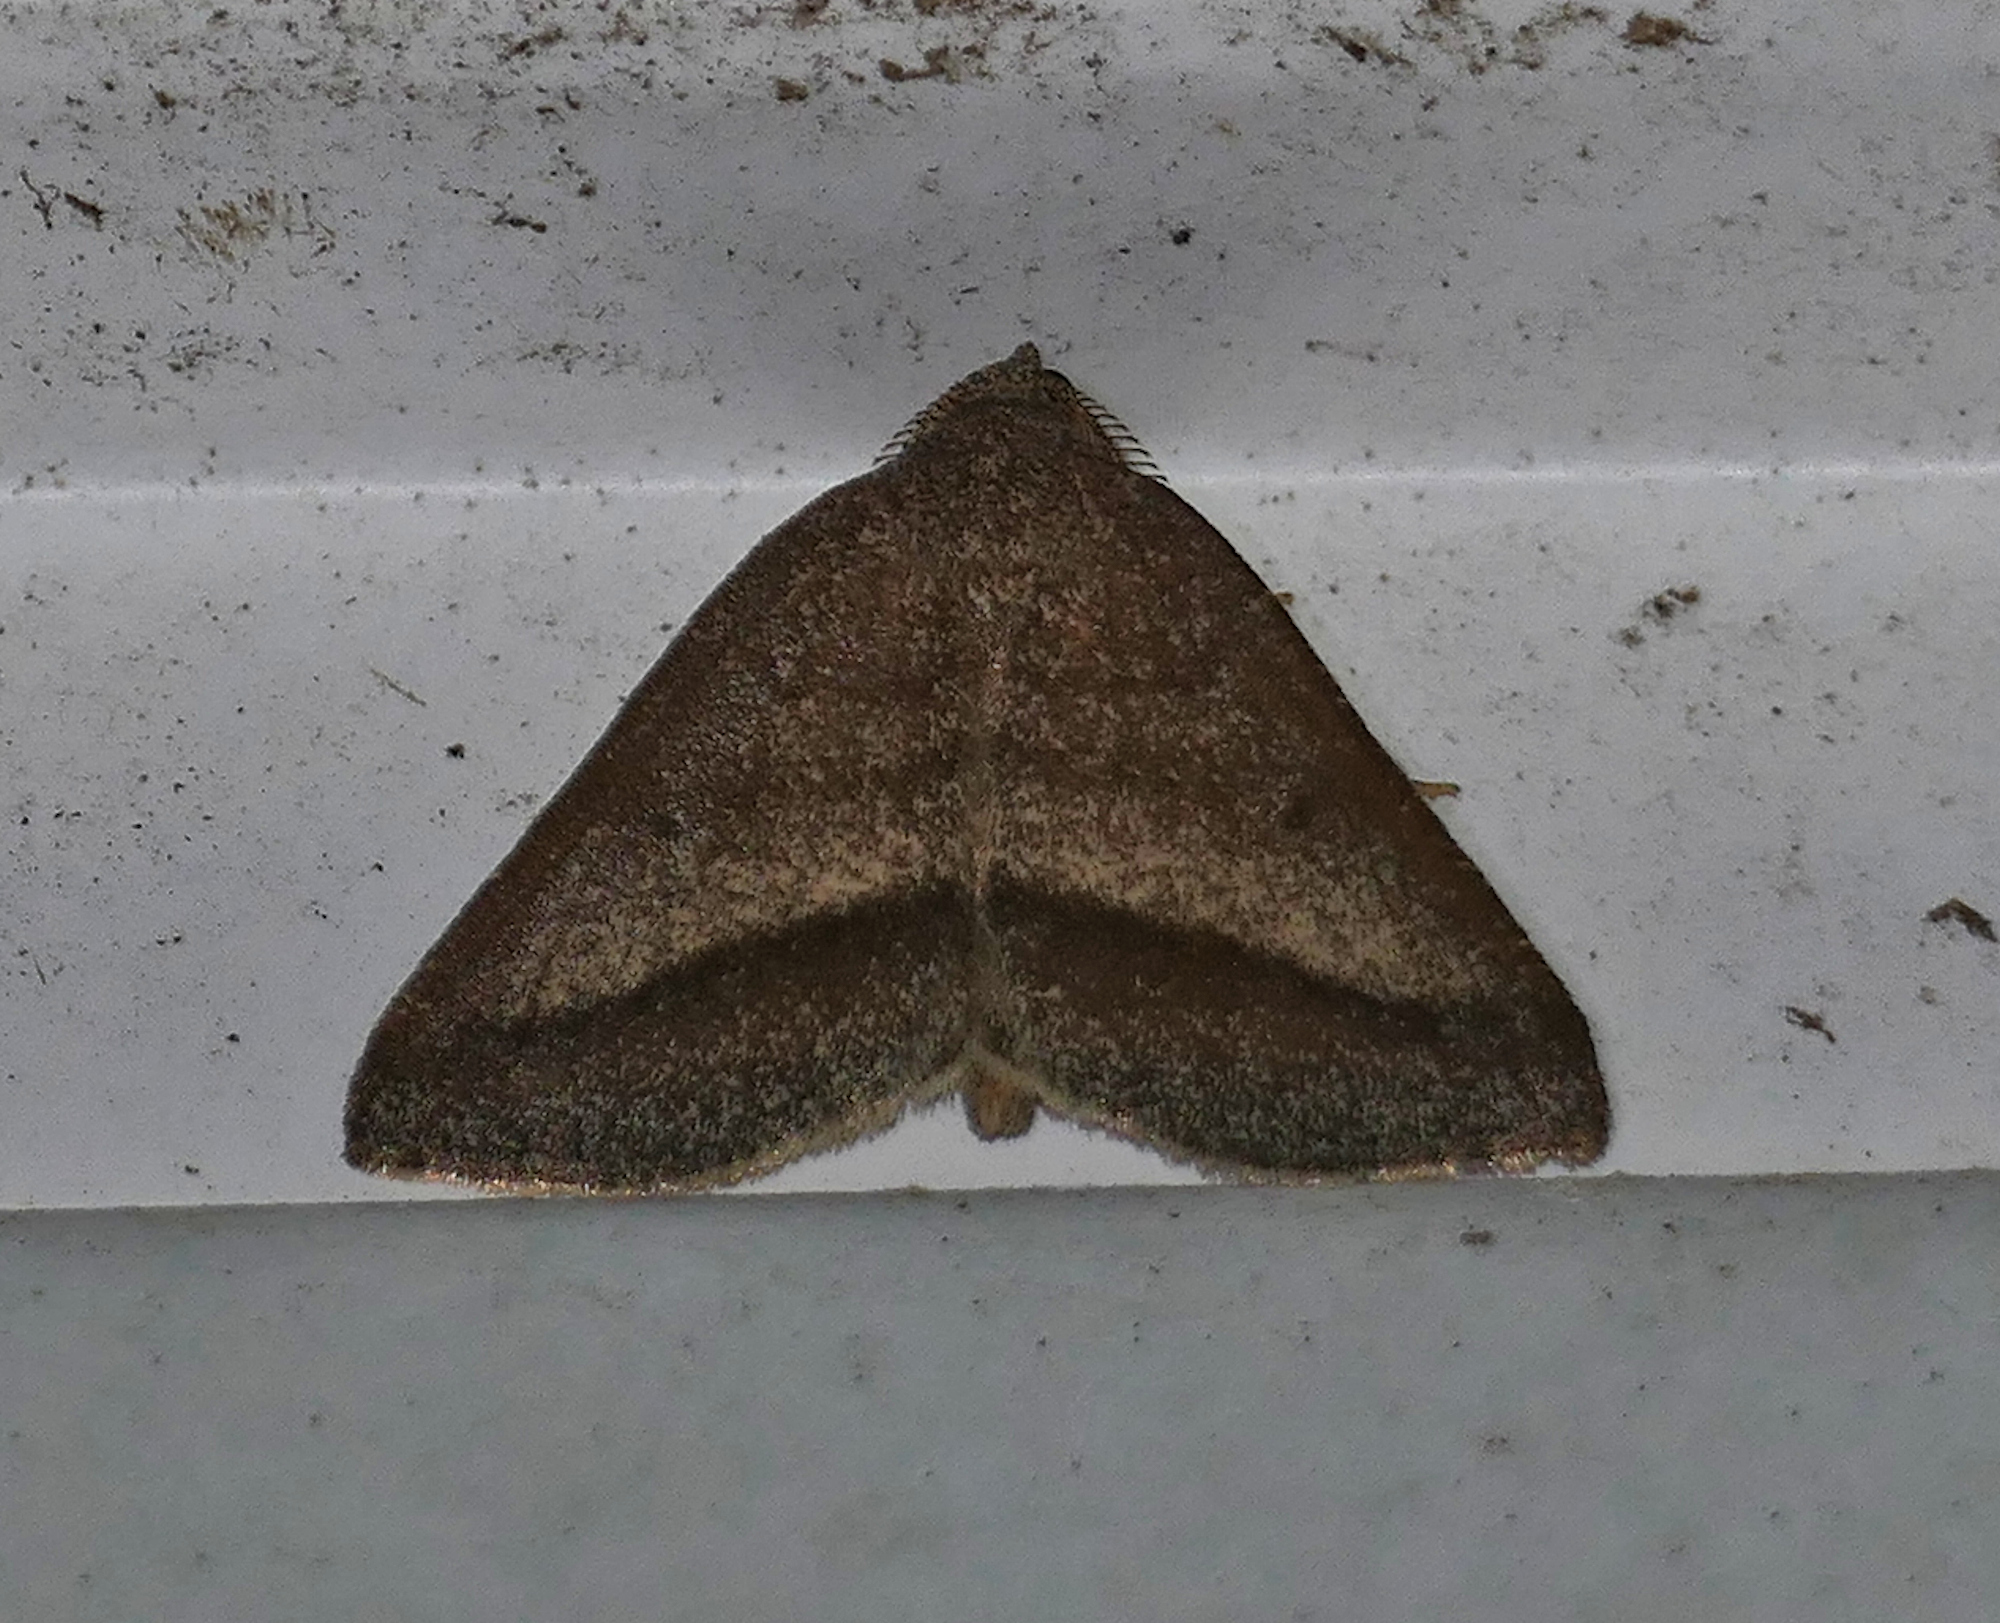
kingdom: Animalia
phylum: Arthropoda
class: Insecta
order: Lepidoptera
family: Geometridae
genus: Macaria
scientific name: Macaria varadaria
